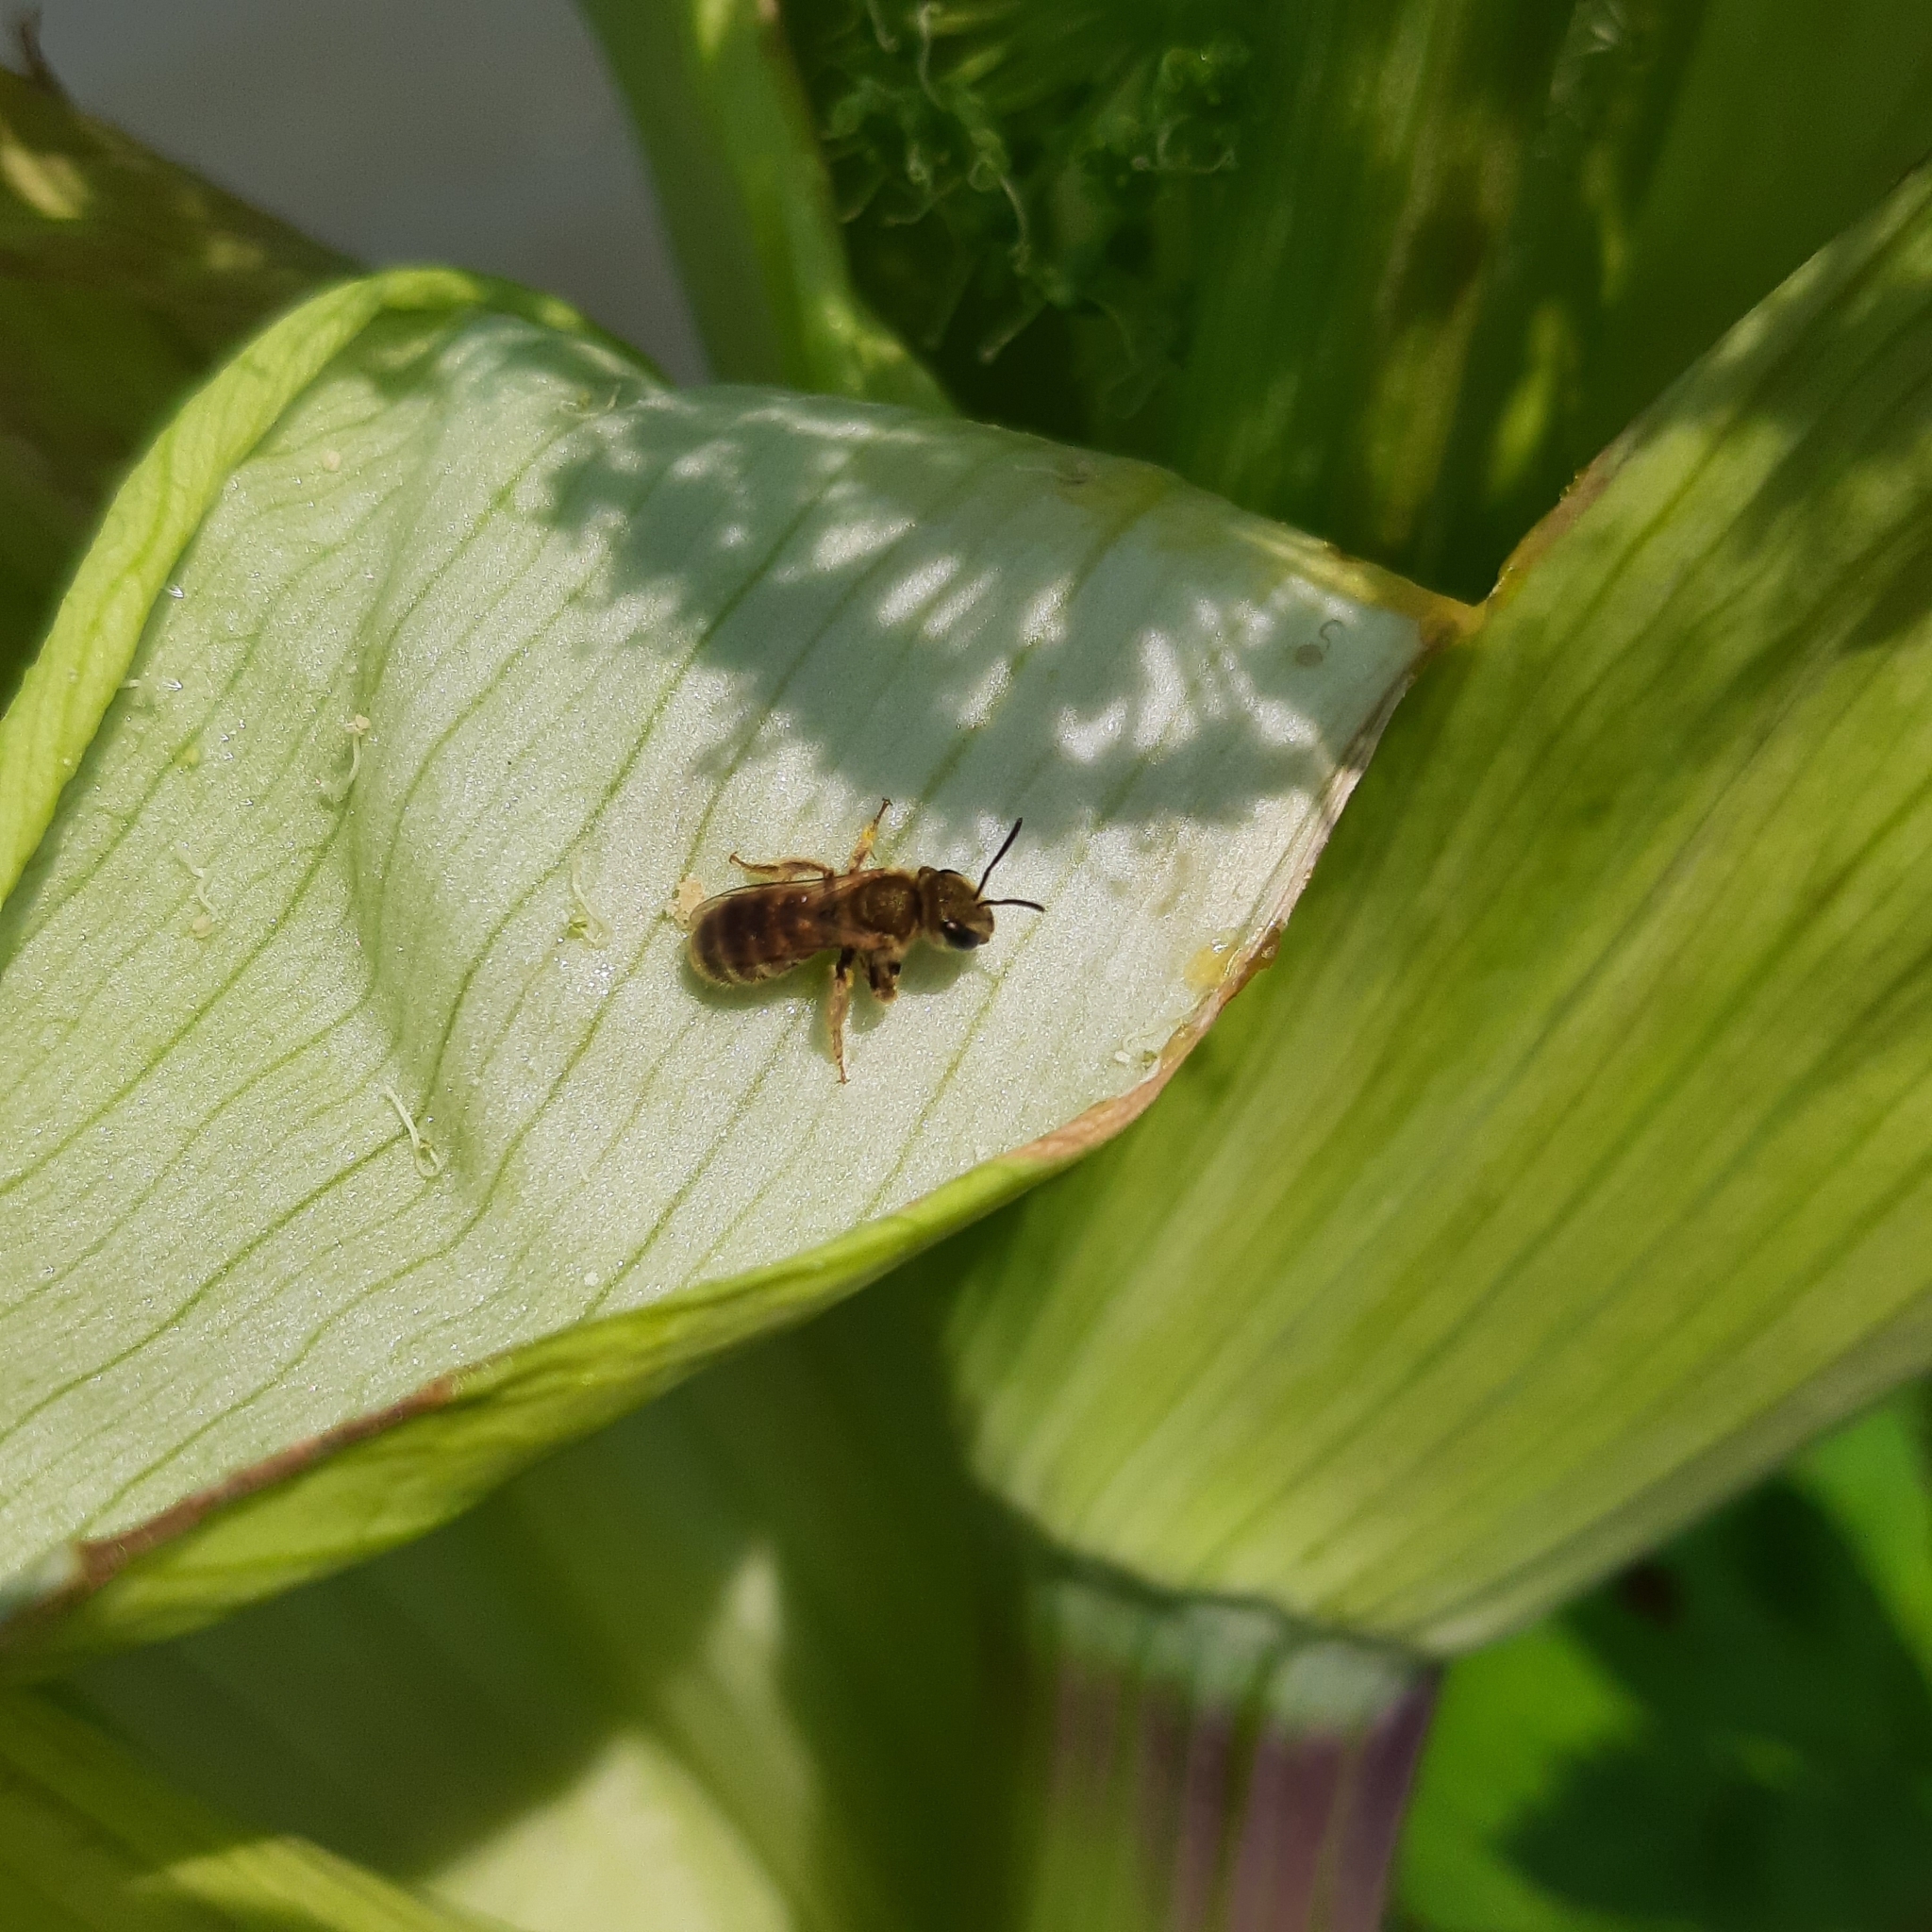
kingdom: Animalia
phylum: Arthropoda
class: Insecta
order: Hymenoptera
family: Halictidae
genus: Seladonia
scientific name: Seladonia
